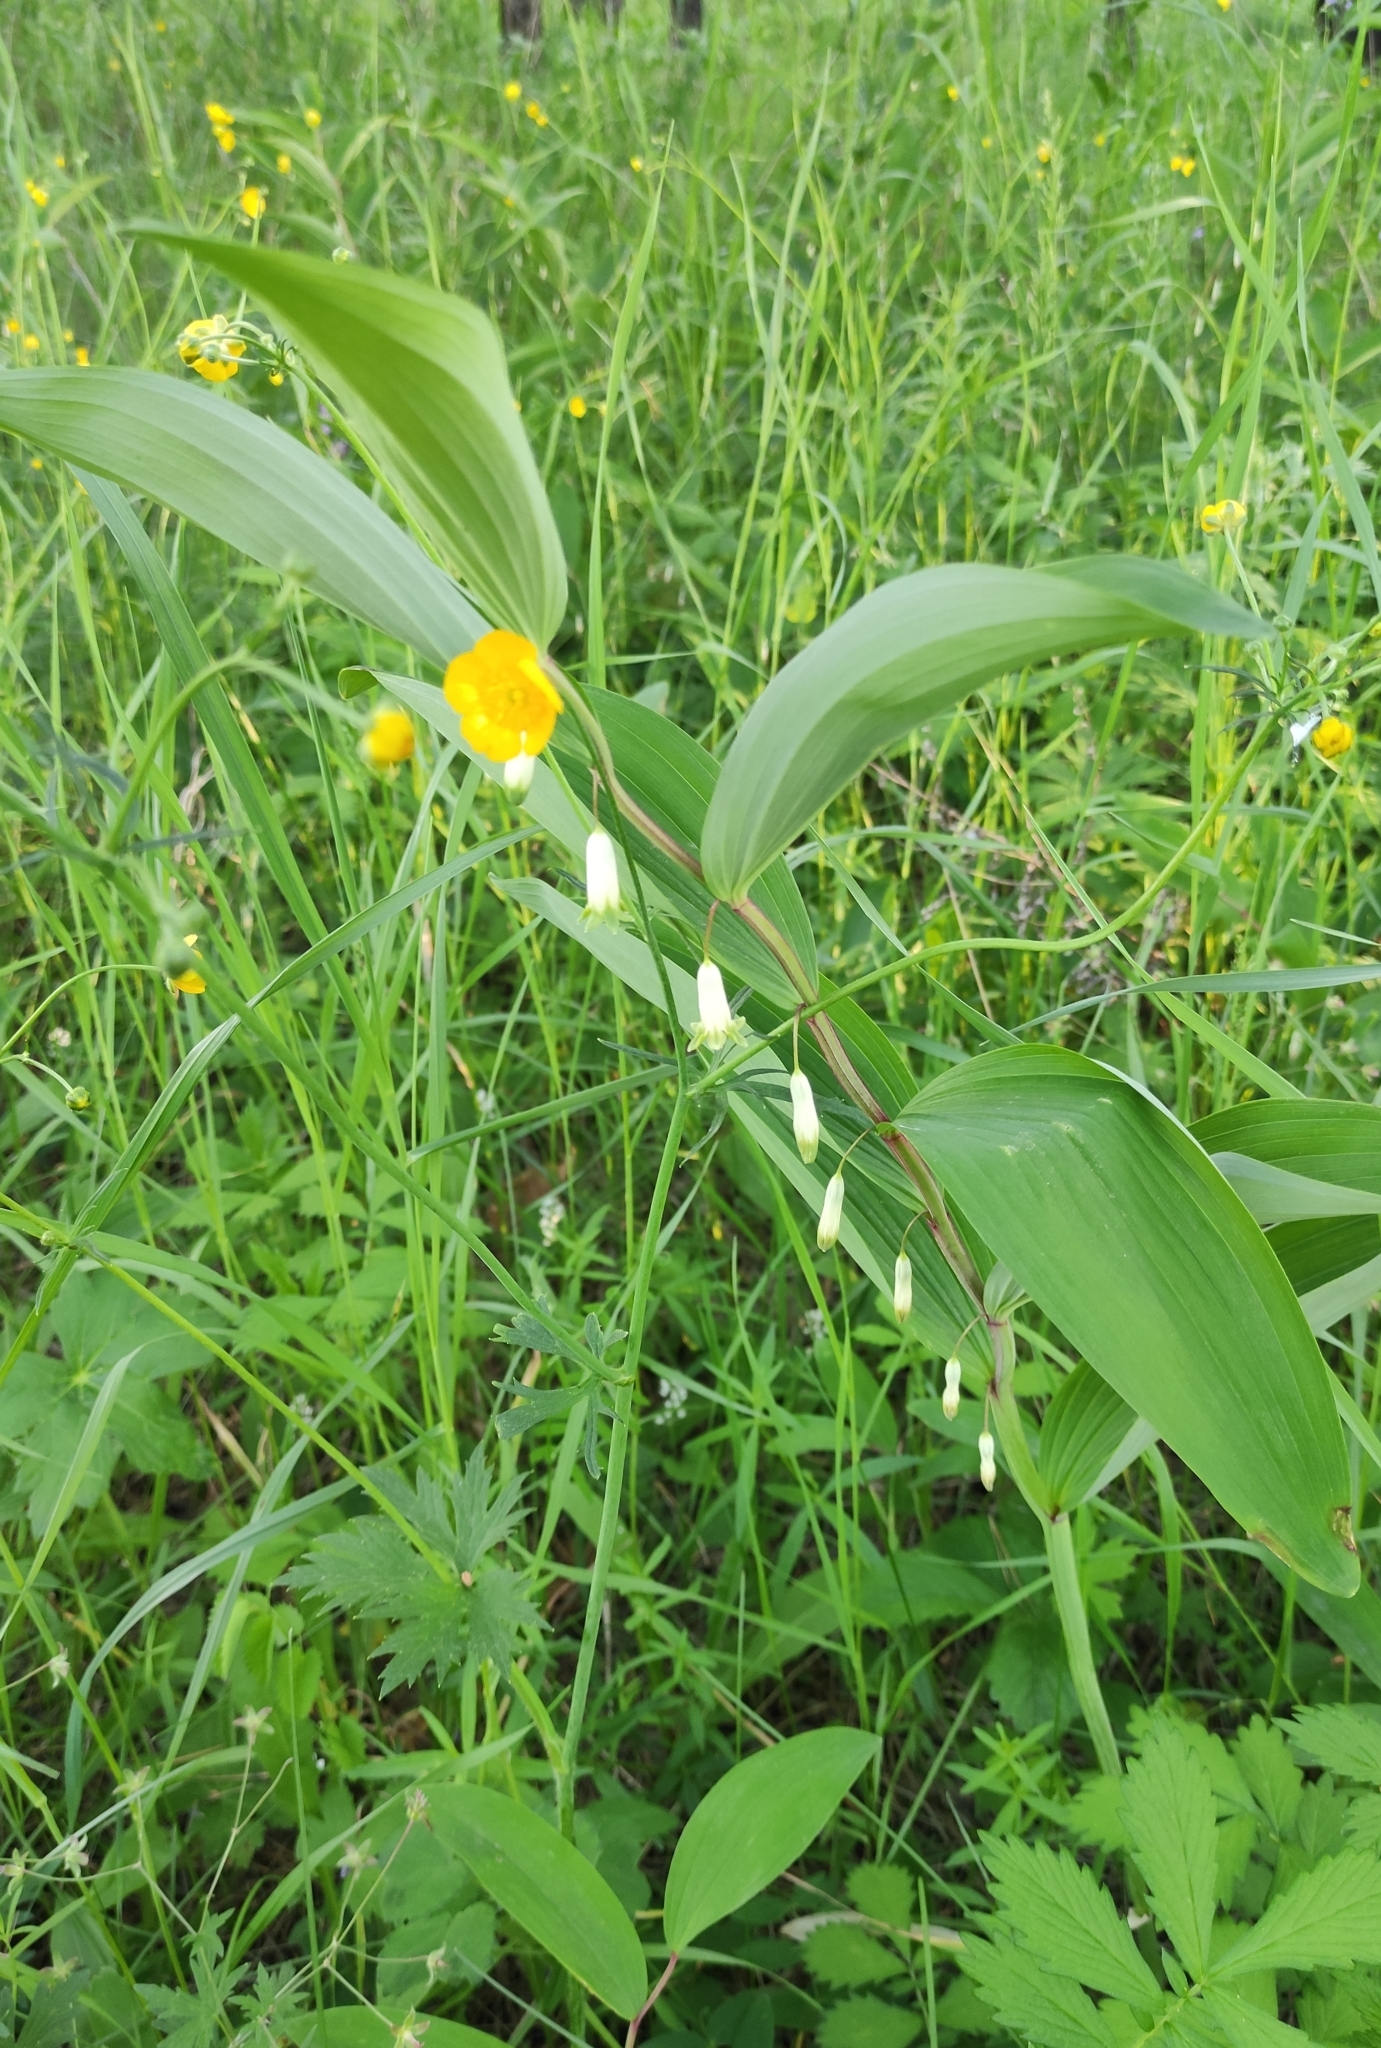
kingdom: Plantae
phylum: Tracheophyta
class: Liliopsida
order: Asparagales
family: Asparagaceae
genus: Polygonatum
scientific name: Polygonatum odoratum
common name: Angular solomon's-seal
